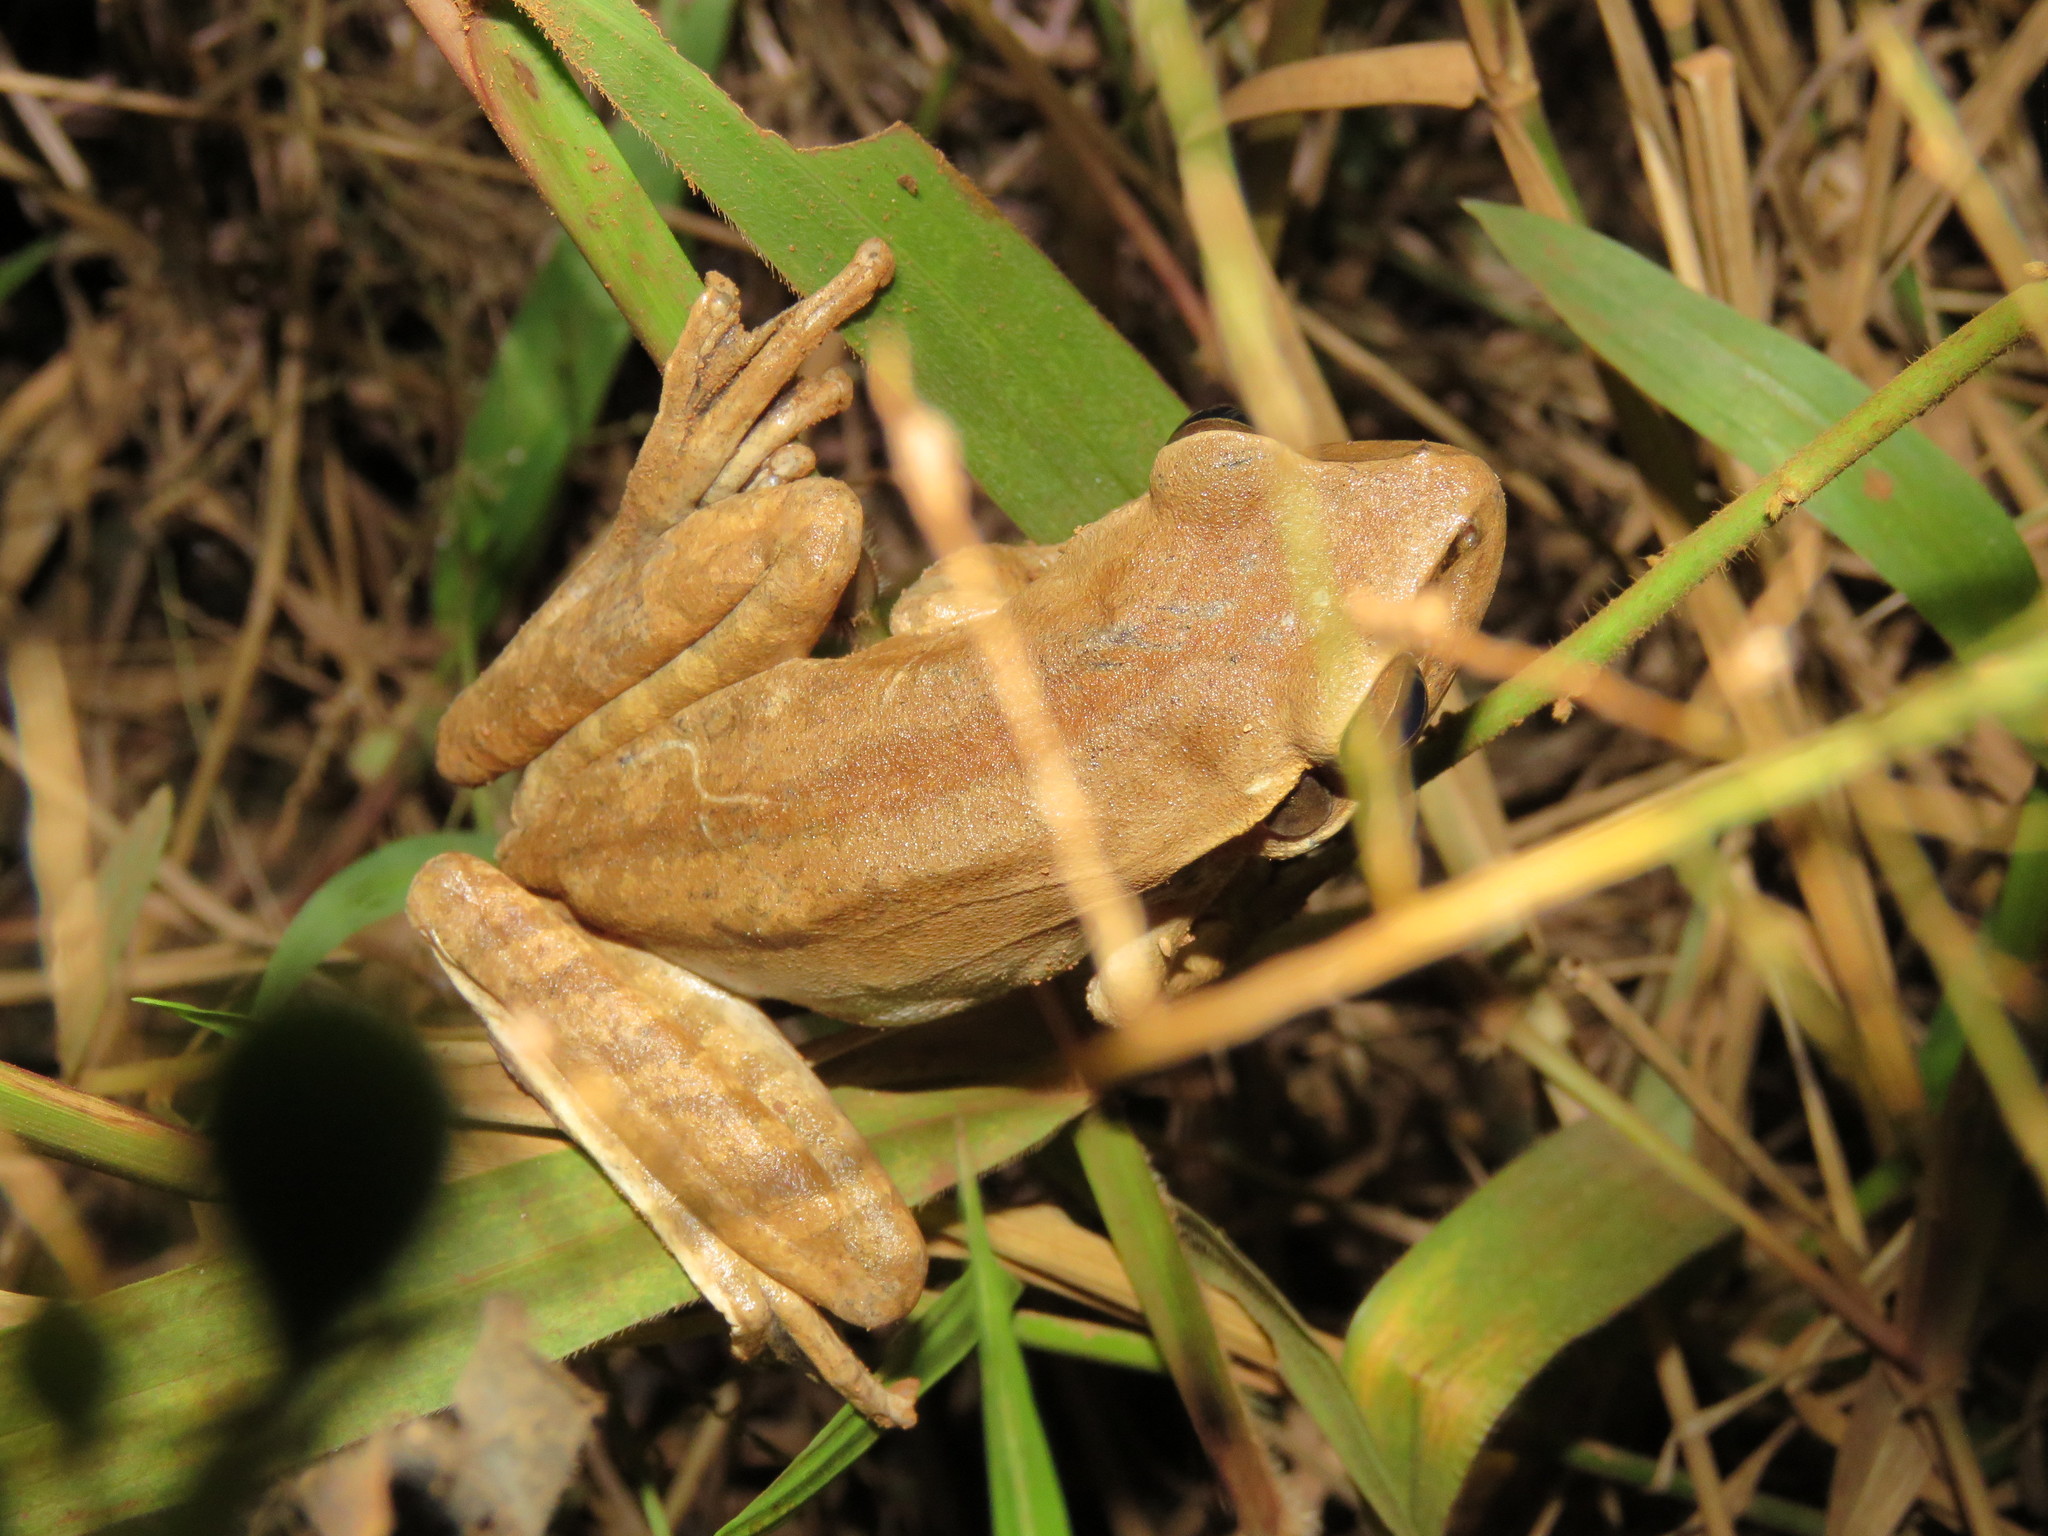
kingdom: Animalia
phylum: Chordata
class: Amphibia
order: Anura
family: Hylidae
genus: Boana
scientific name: Boana raniceps
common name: Chaco treefrog
